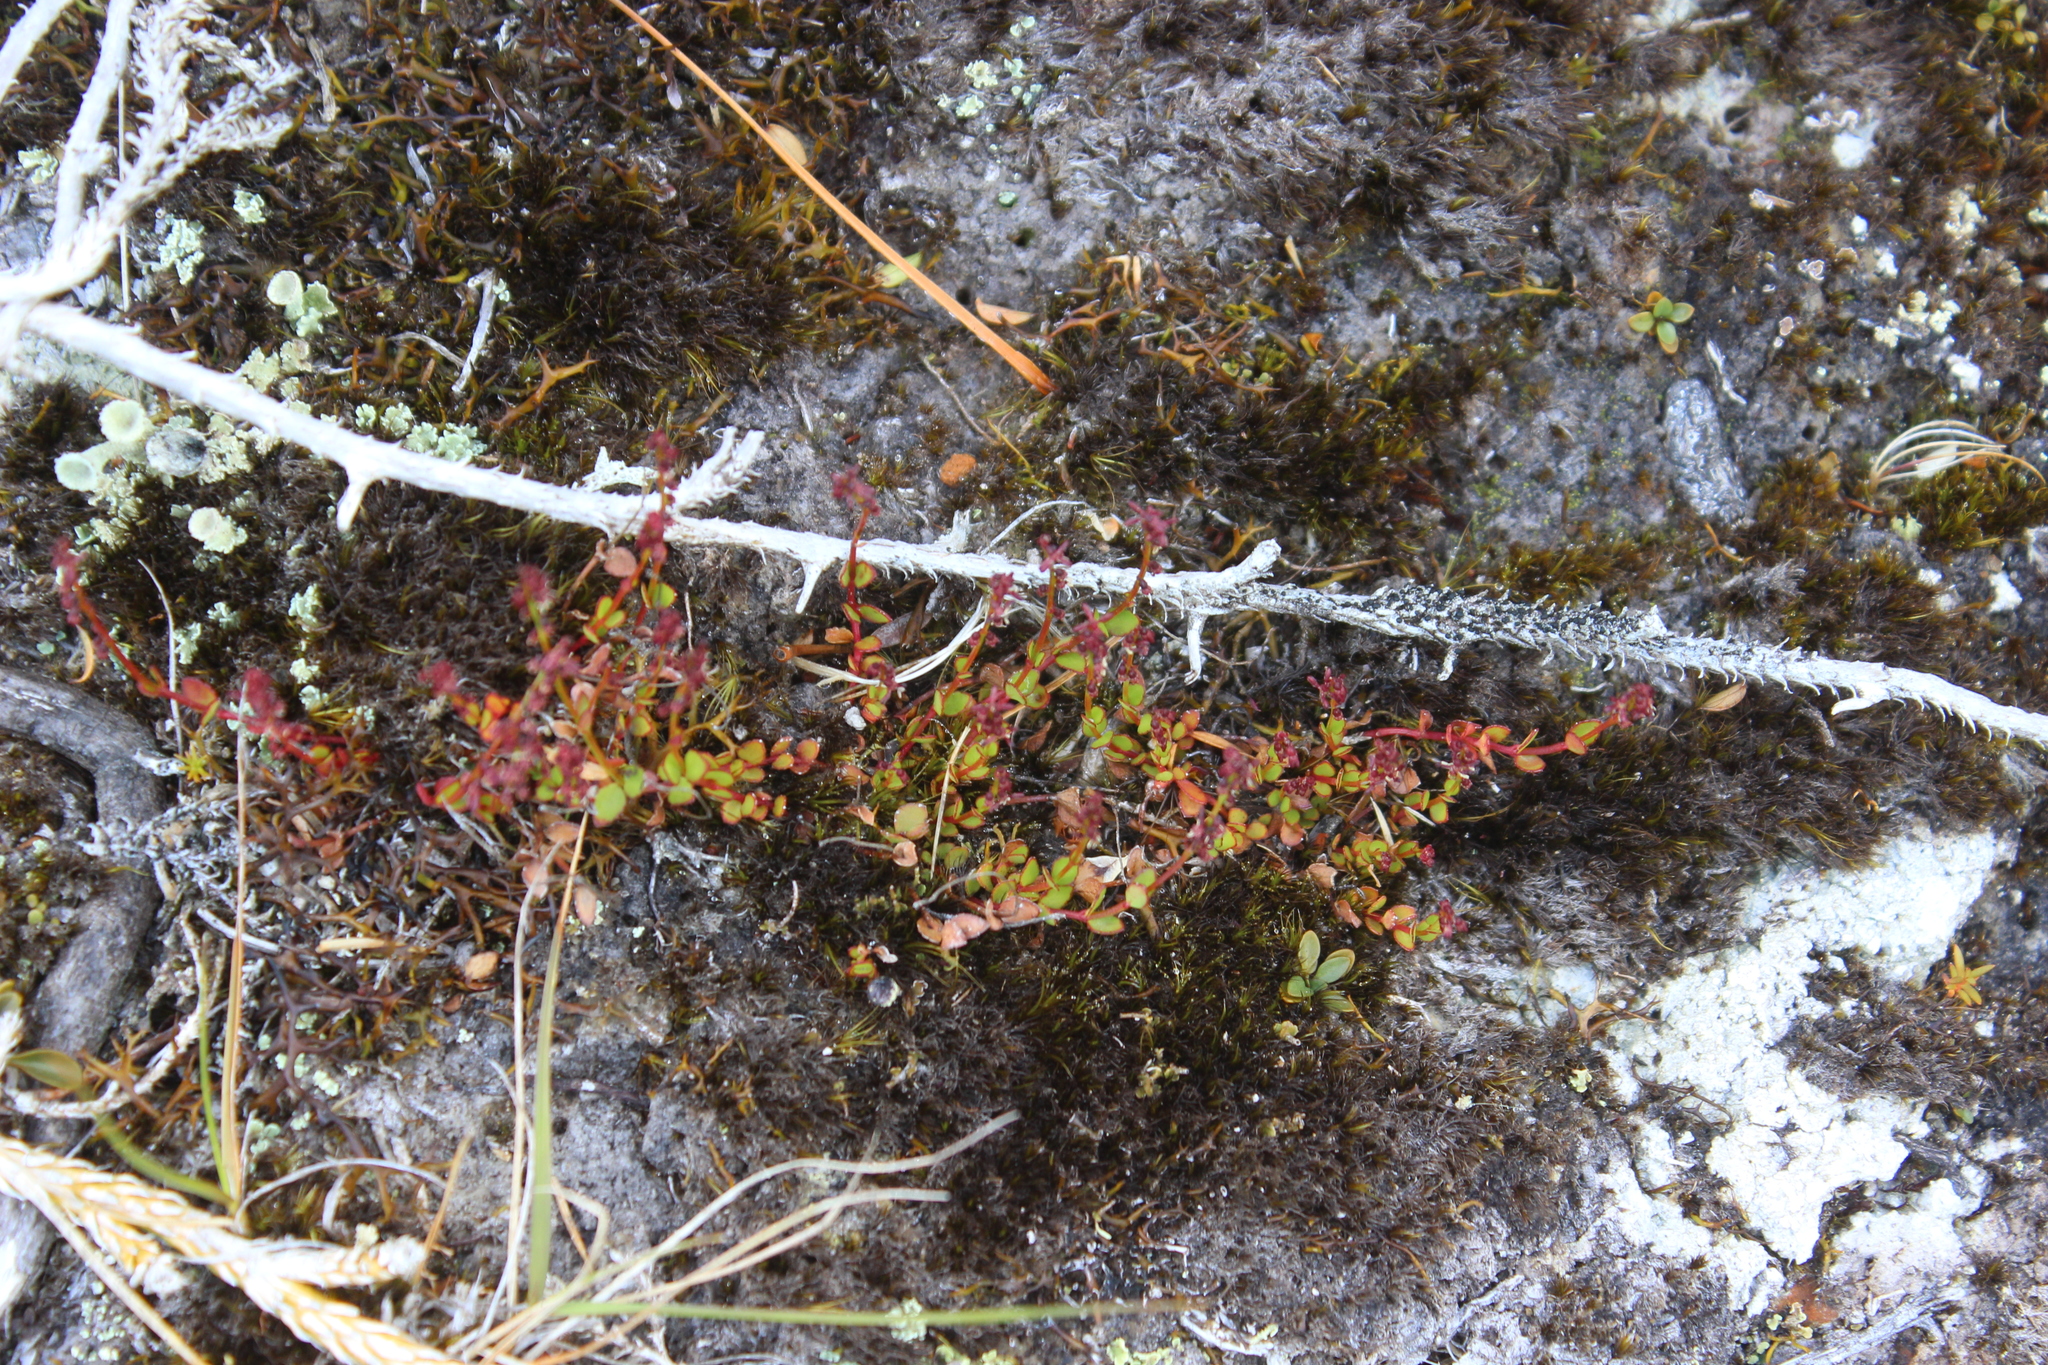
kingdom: Plantae
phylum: Tracheophyta
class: Magnoliopsida
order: Saxifragales
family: Haloragaceae
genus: Gonocarpus
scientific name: Gonocarpus micranthus
